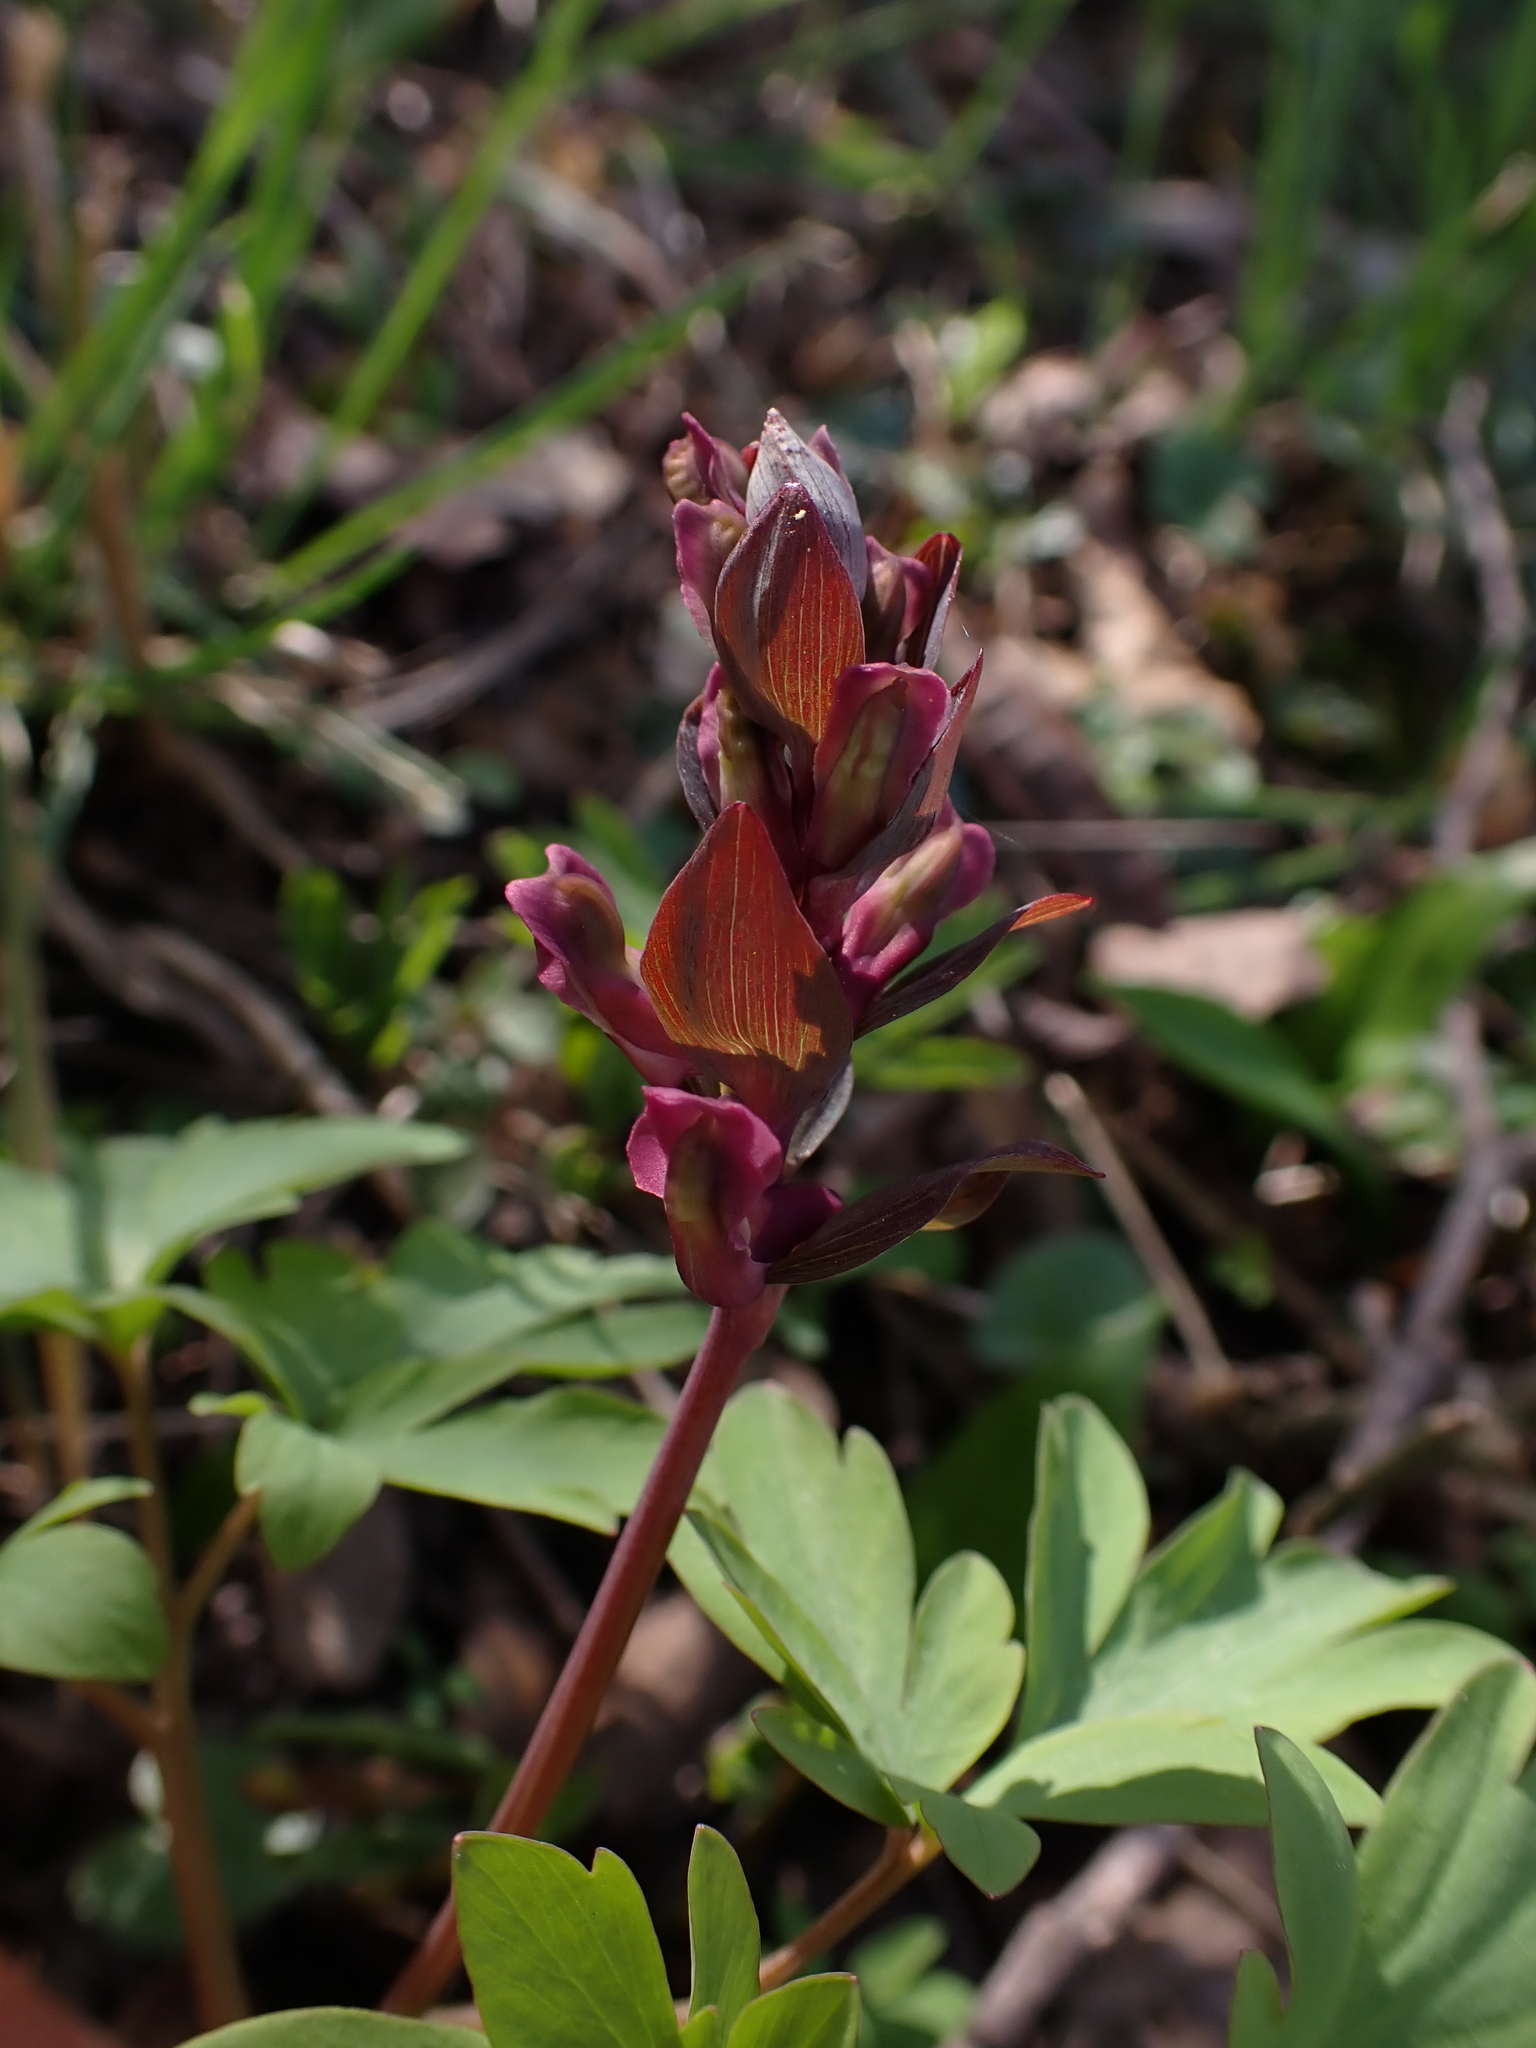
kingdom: Plantae
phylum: Tracheophyta
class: Magnoliopsida
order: Ranunculales
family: Papaveraceae
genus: Corydalis
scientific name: Corydalis cava
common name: Hollowroot
